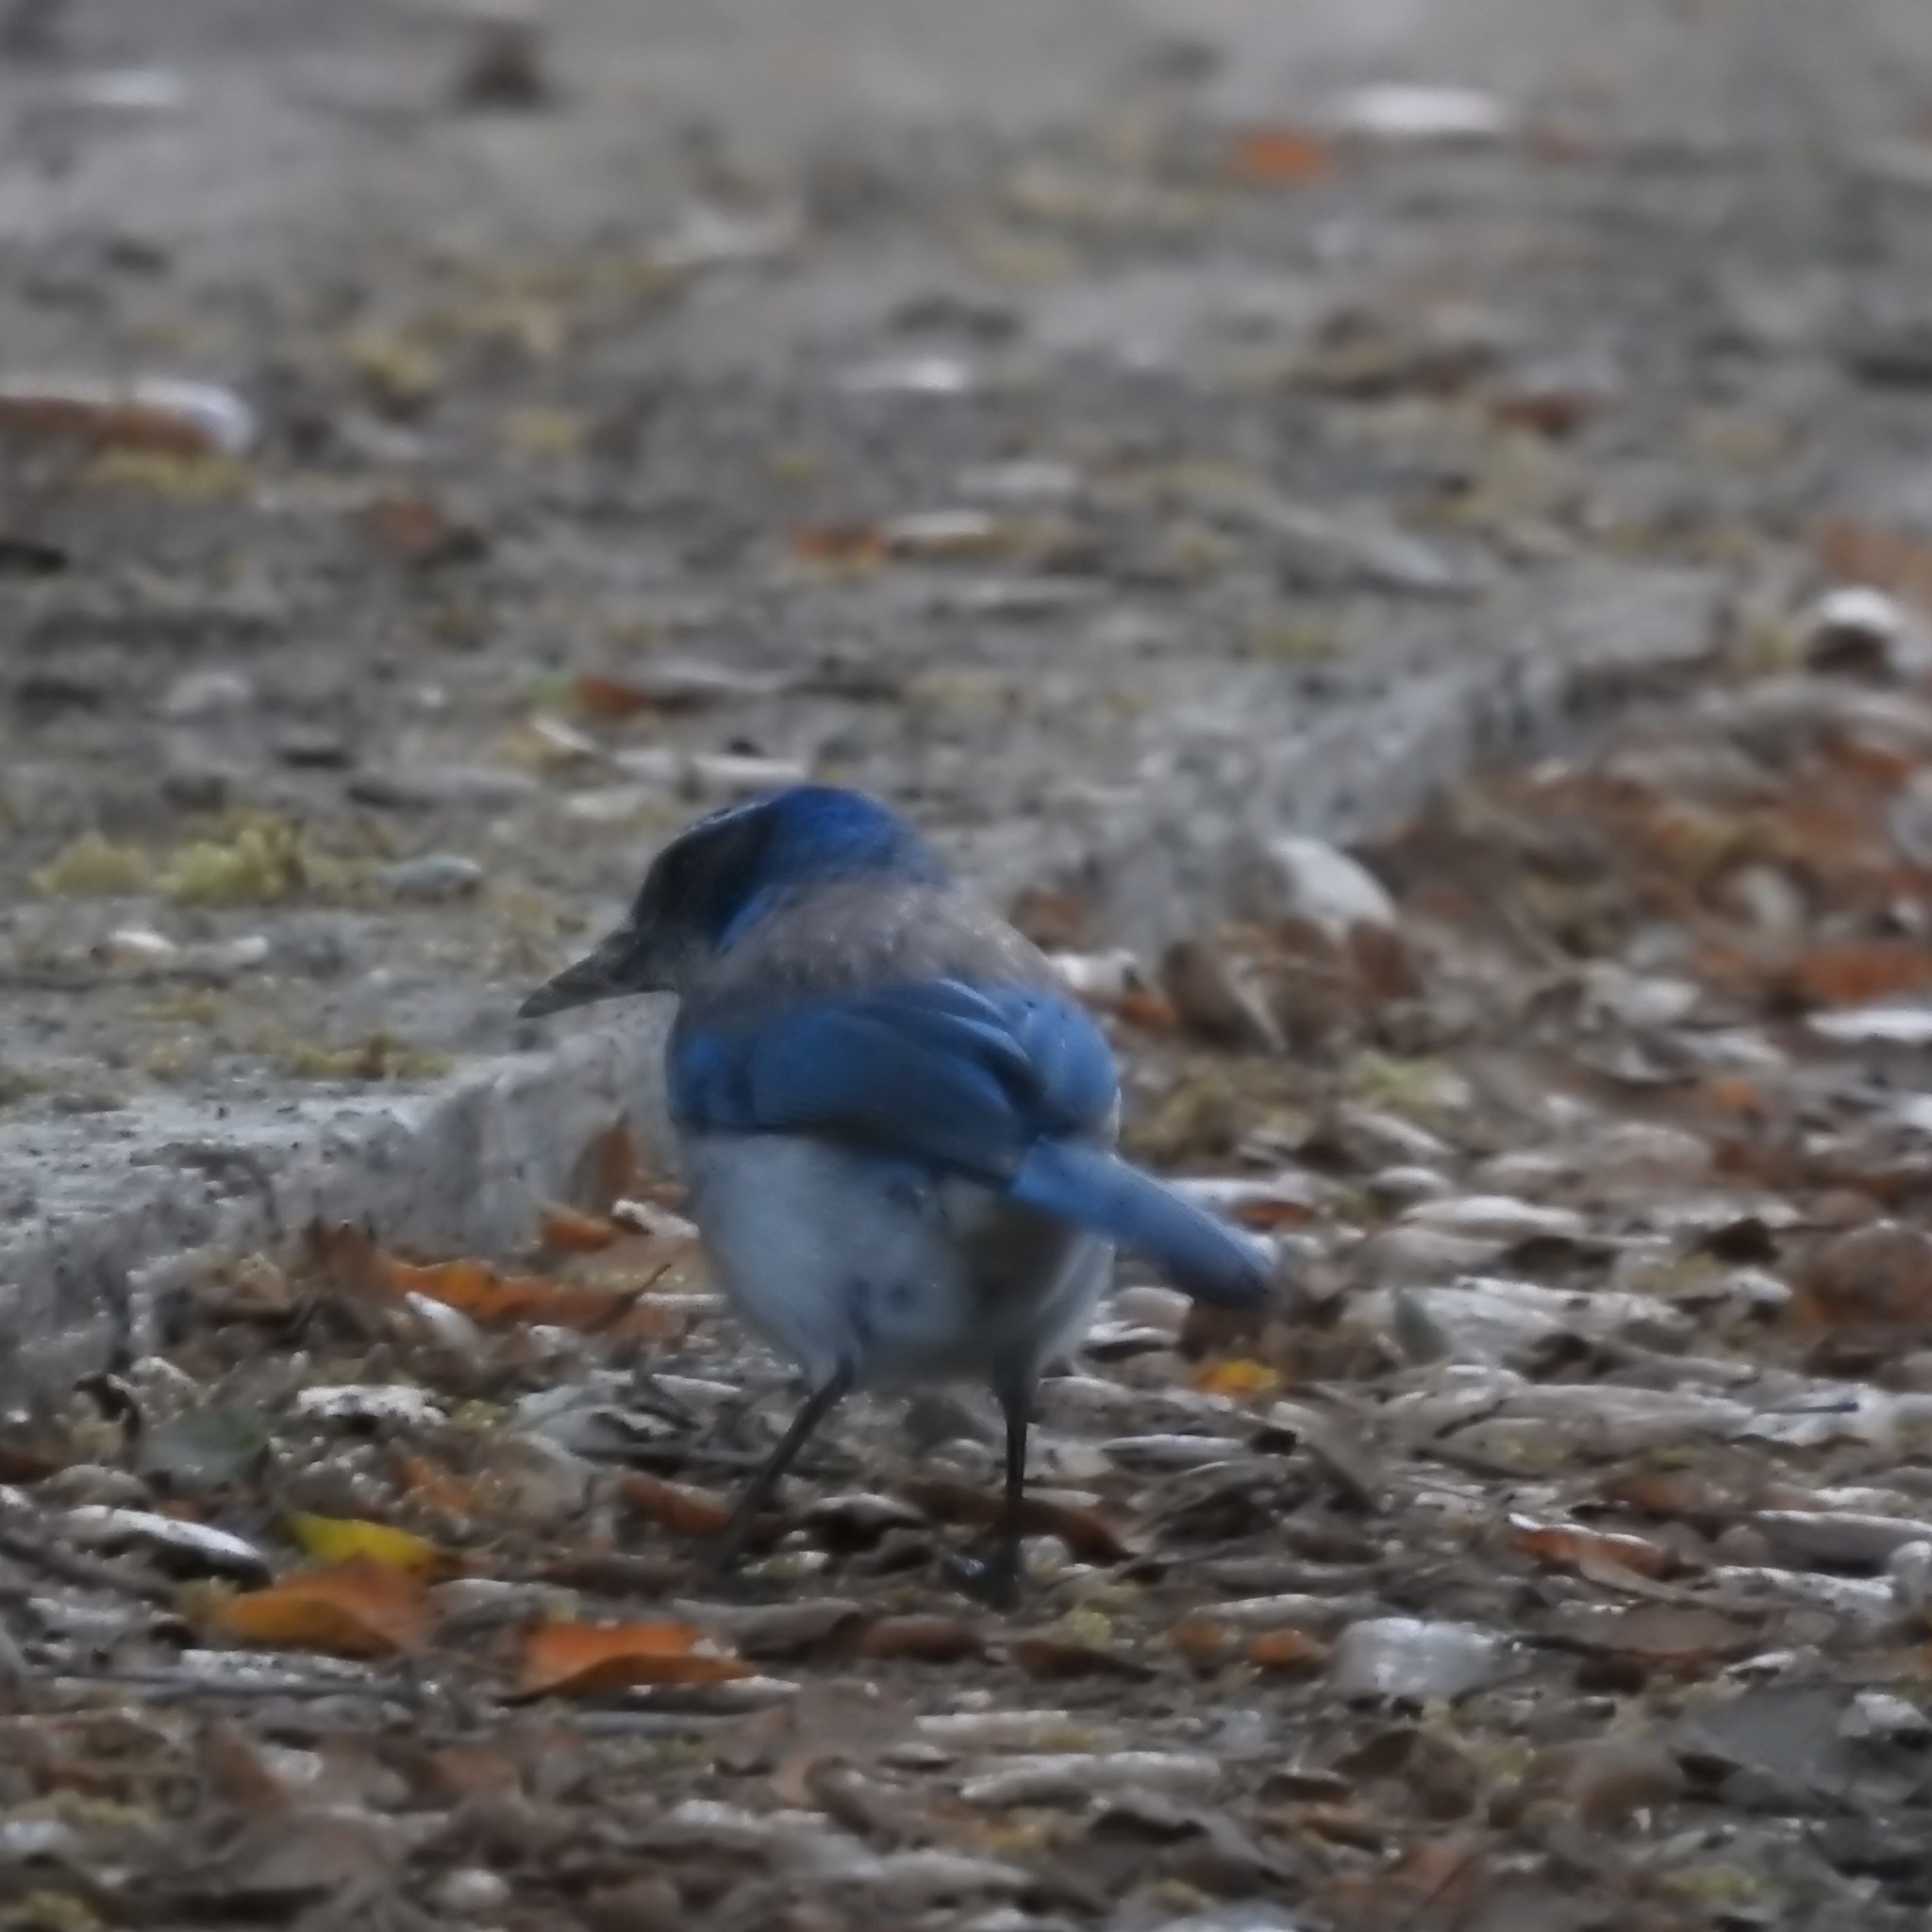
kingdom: Animalia
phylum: Chordata
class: Aves
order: Passeriformes
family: Corvidae
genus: Aphelocoma
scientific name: Aphelocoma californica
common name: California scrub-jay
